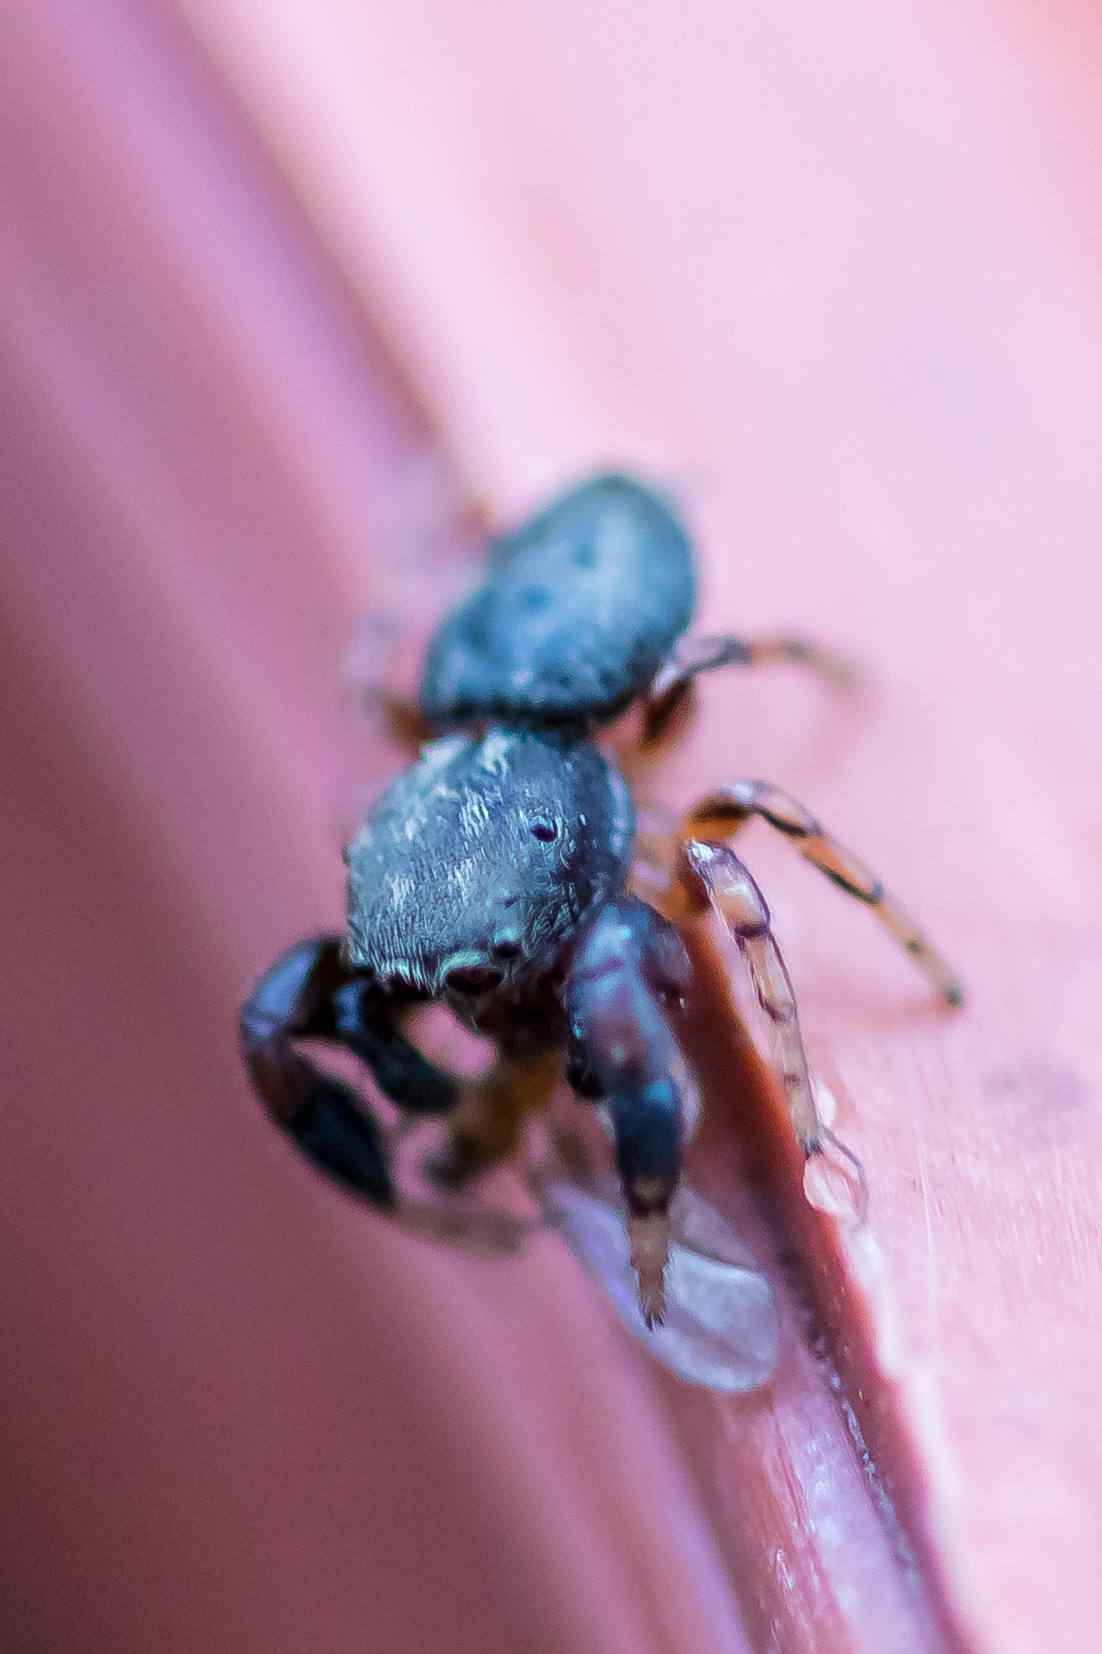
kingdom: Animalia
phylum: Arthropoda
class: Arachnida
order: Araneae
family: Salticidae
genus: Ballus
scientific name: Ballus chalybeius
